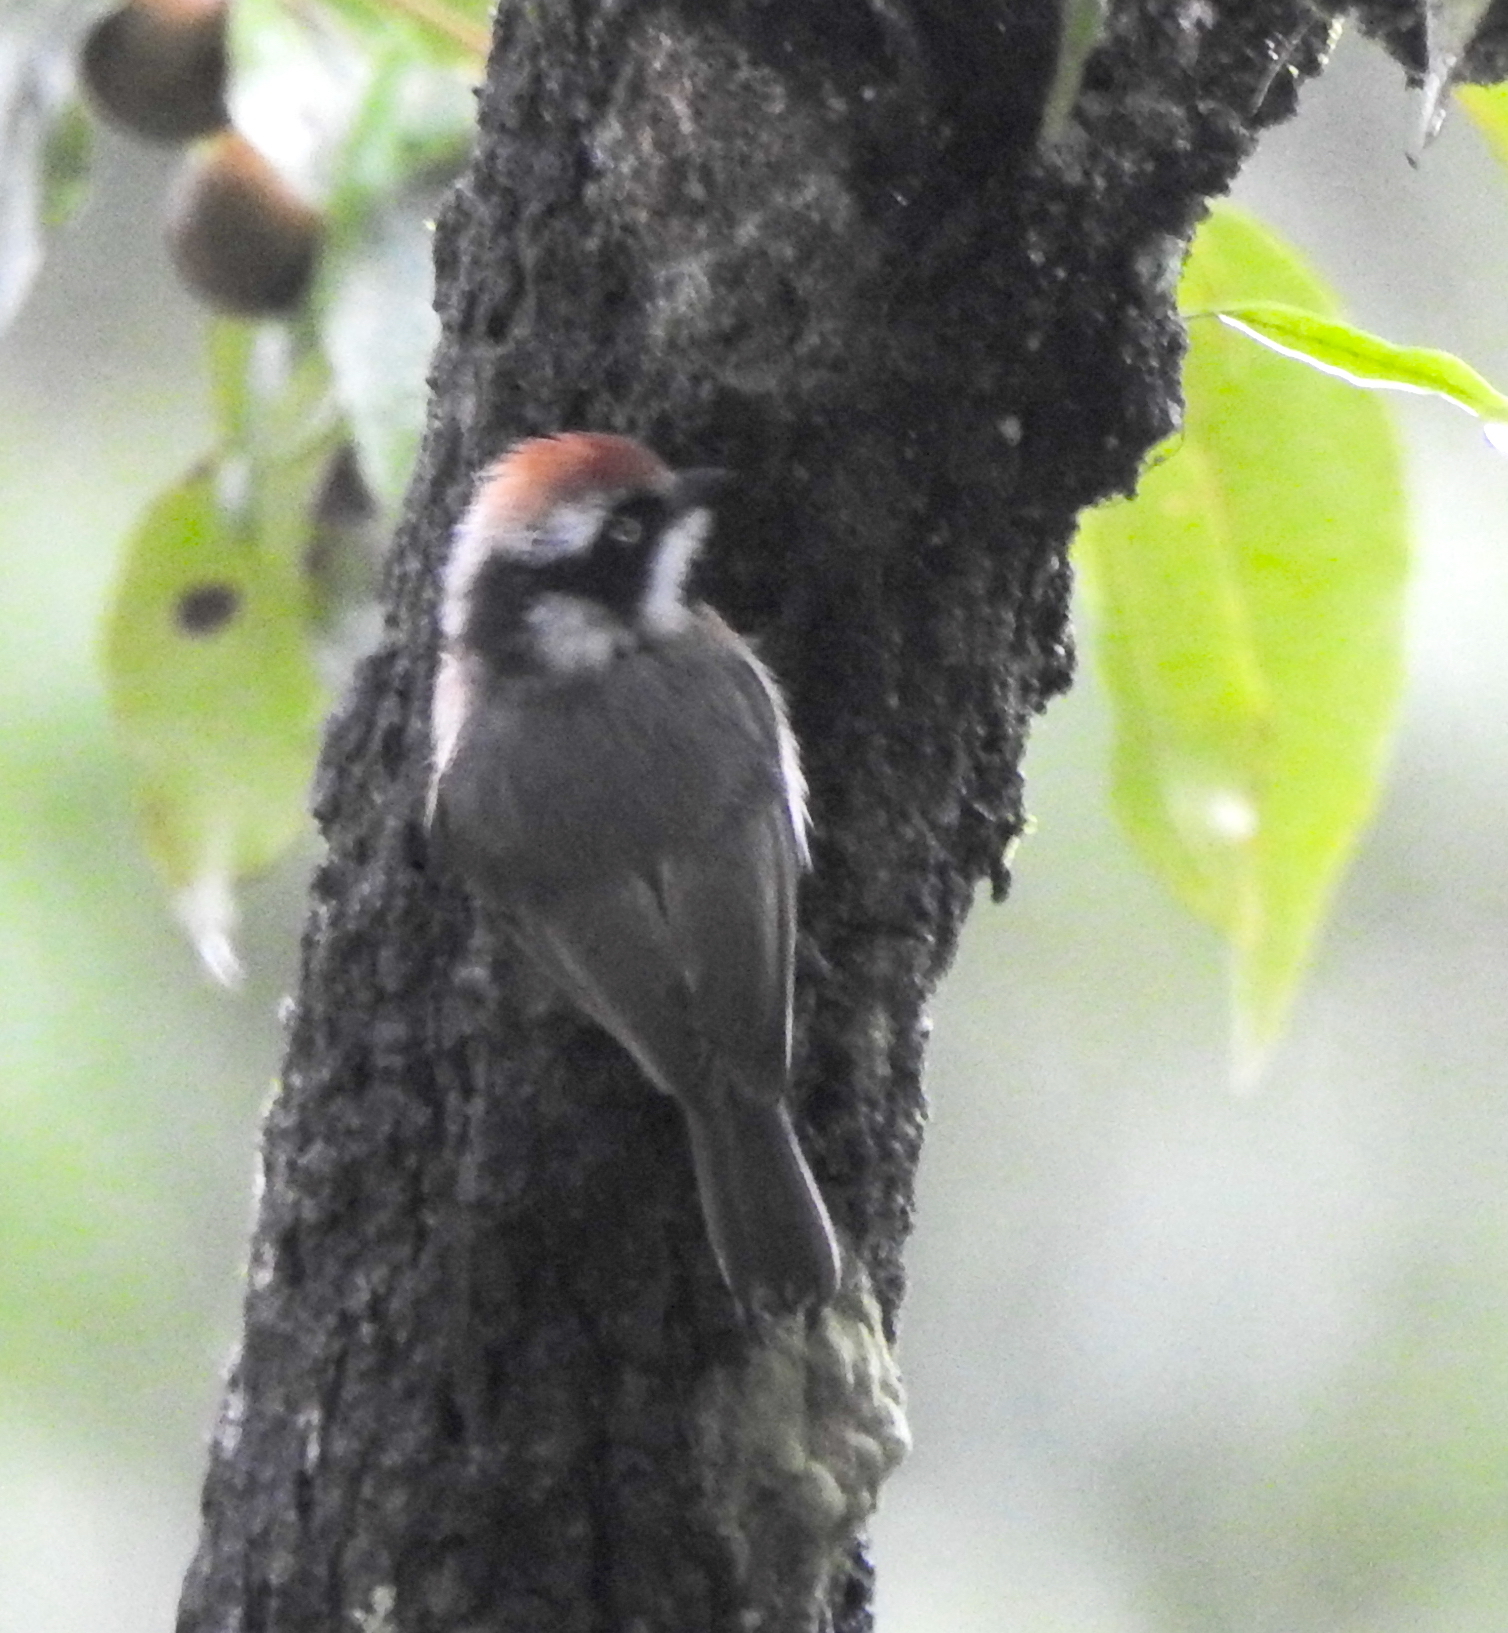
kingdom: Animalia
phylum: Chordata
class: Aves
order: Passeriformes
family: Aegithalidae
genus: Aegithalos
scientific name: Aegithalos concinnus
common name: Black-throated bushtit
